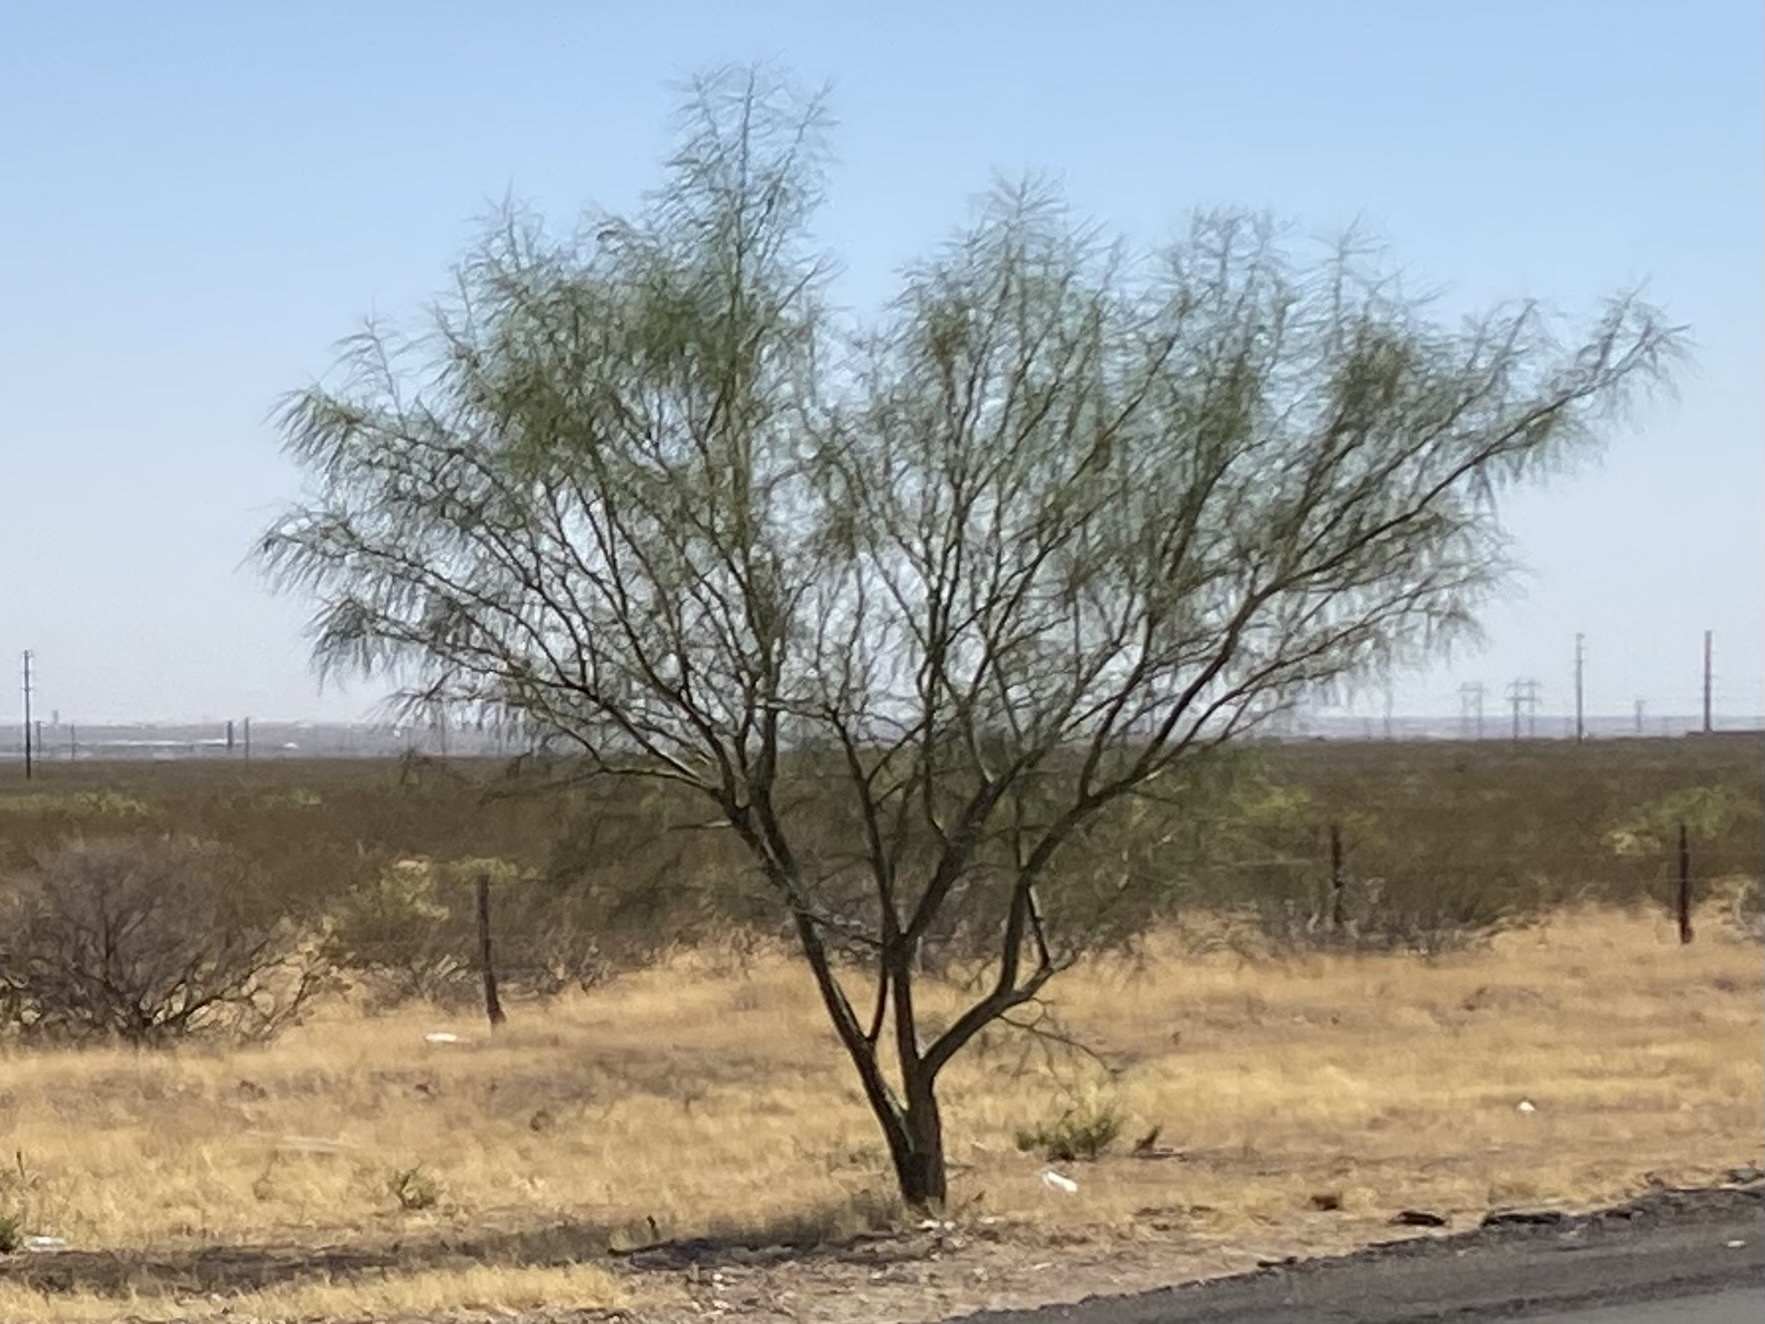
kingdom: Plantae
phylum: Tracheophyta
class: Magnoliopsida
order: Fabales
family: Fabaceae
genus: Parkinsonia
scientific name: Parkinsonia aculeata
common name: Jerusalem thorn
